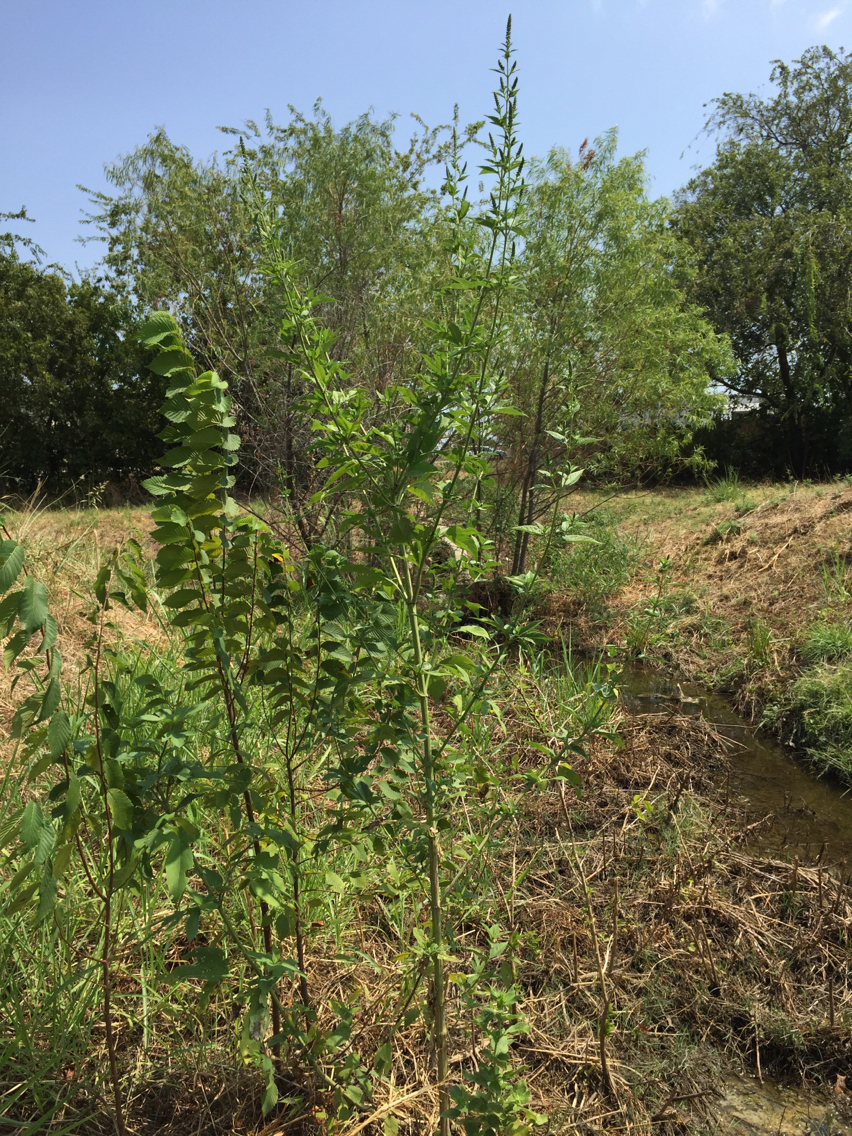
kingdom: Plantae
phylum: Tracheophyta
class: Magnoliopsida
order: Asterales
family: Asteraceae
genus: Ambrosia
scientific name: Ambrosia trifida
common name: Giant ragweed
